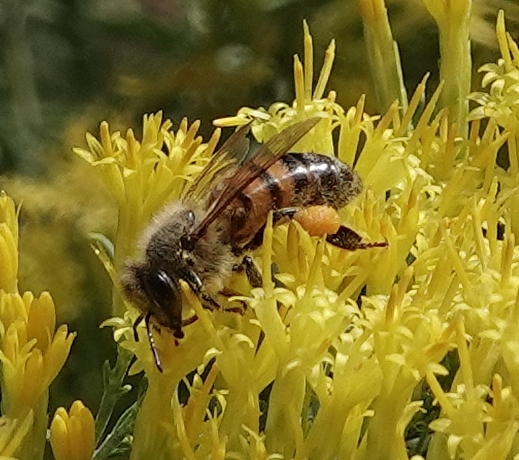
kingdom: Animalia
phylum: Arthropoda
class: Insecta
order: Hymenoptera
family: Apidae
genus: Apis
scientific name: Apis mellifera
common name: Honey bee
